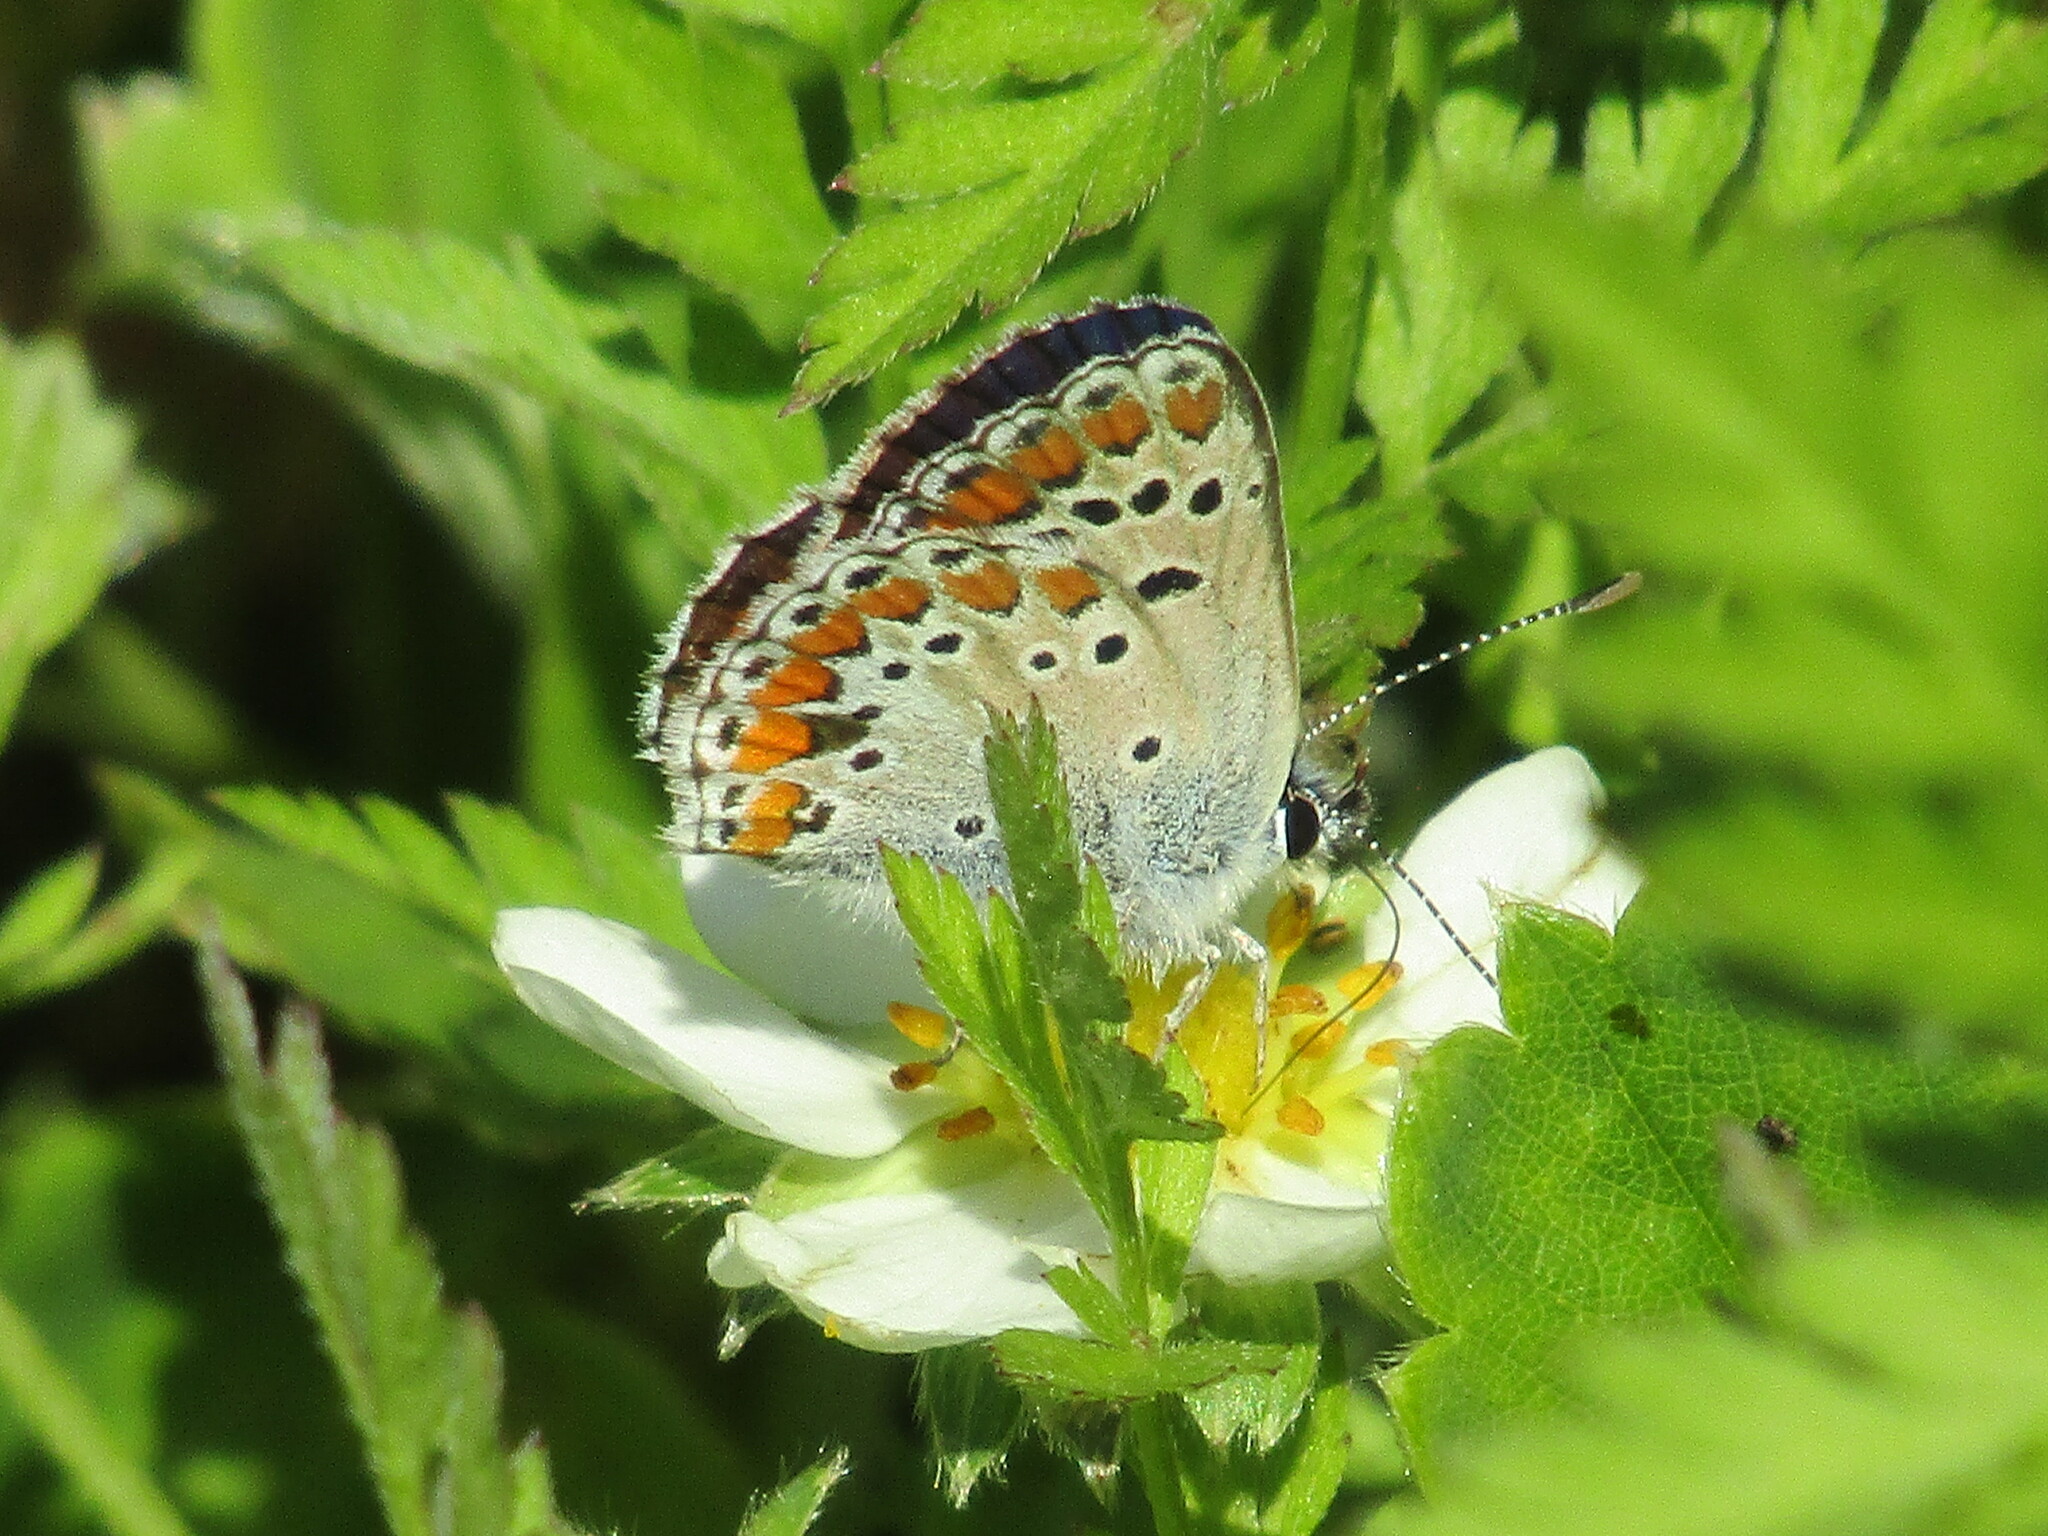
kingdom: Animalia
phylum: Arthropoda
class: Insecta
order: Lepidoptera
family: Lycaenidae
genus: Aricia
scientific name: Aricia agestis
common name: Brown argus
